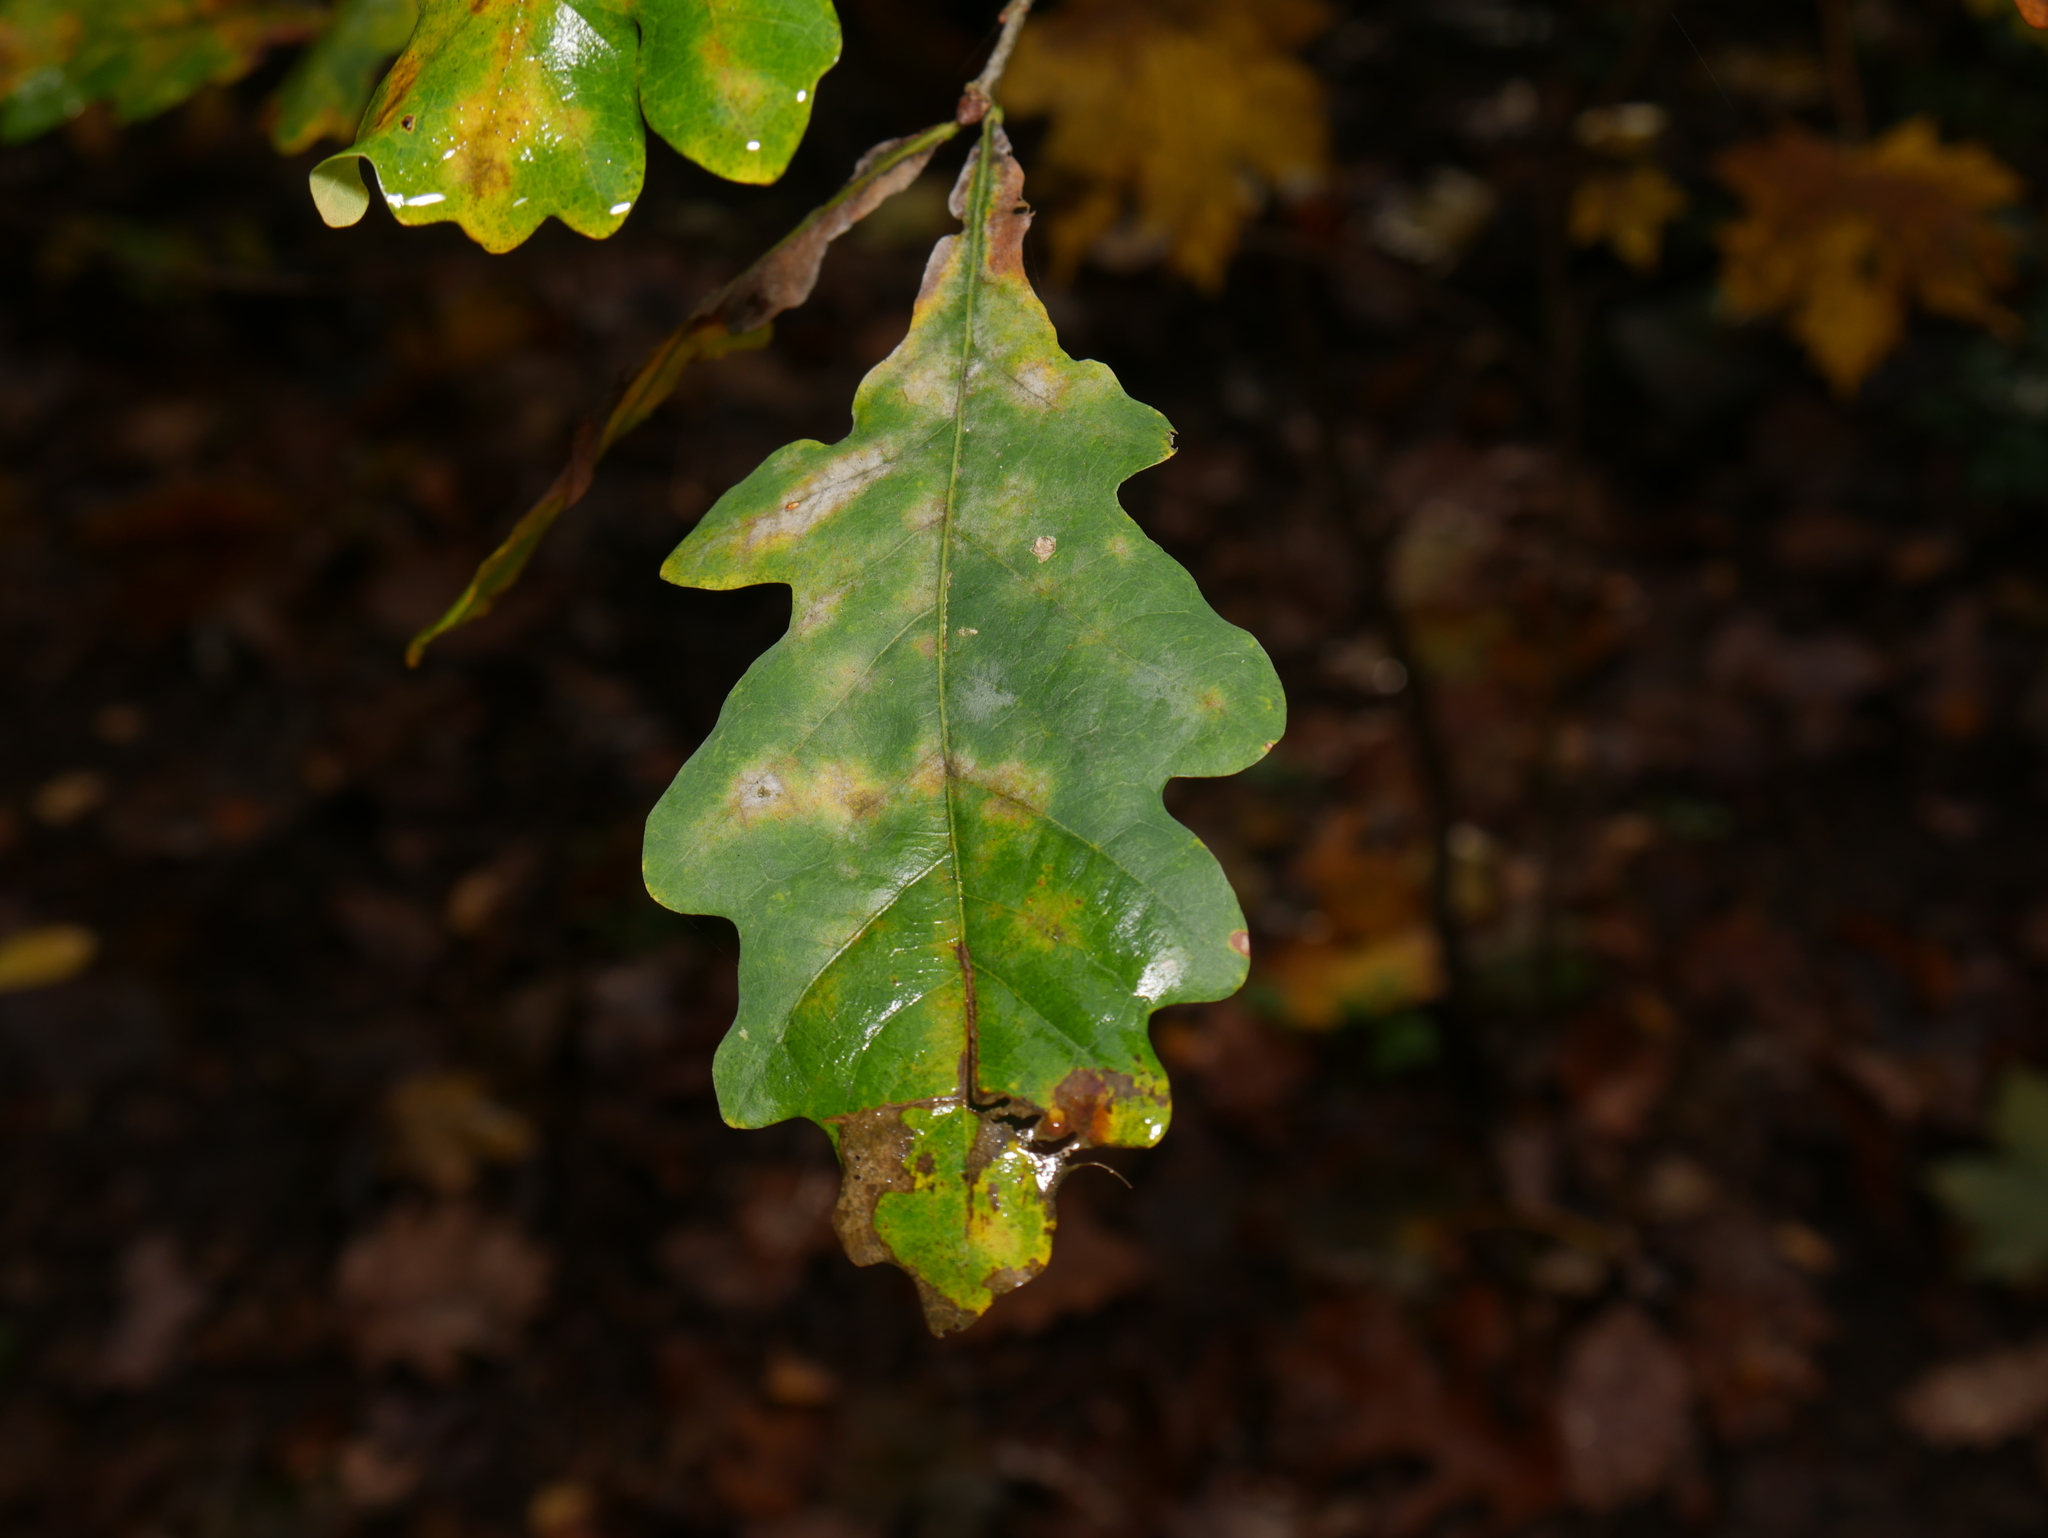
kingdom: Plantae
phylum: Tracheophyta
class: Magnoliopsida
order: Fagales
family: Fagaceae
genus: Quercus
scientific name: Quercus robur
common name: Pedunculate oak
